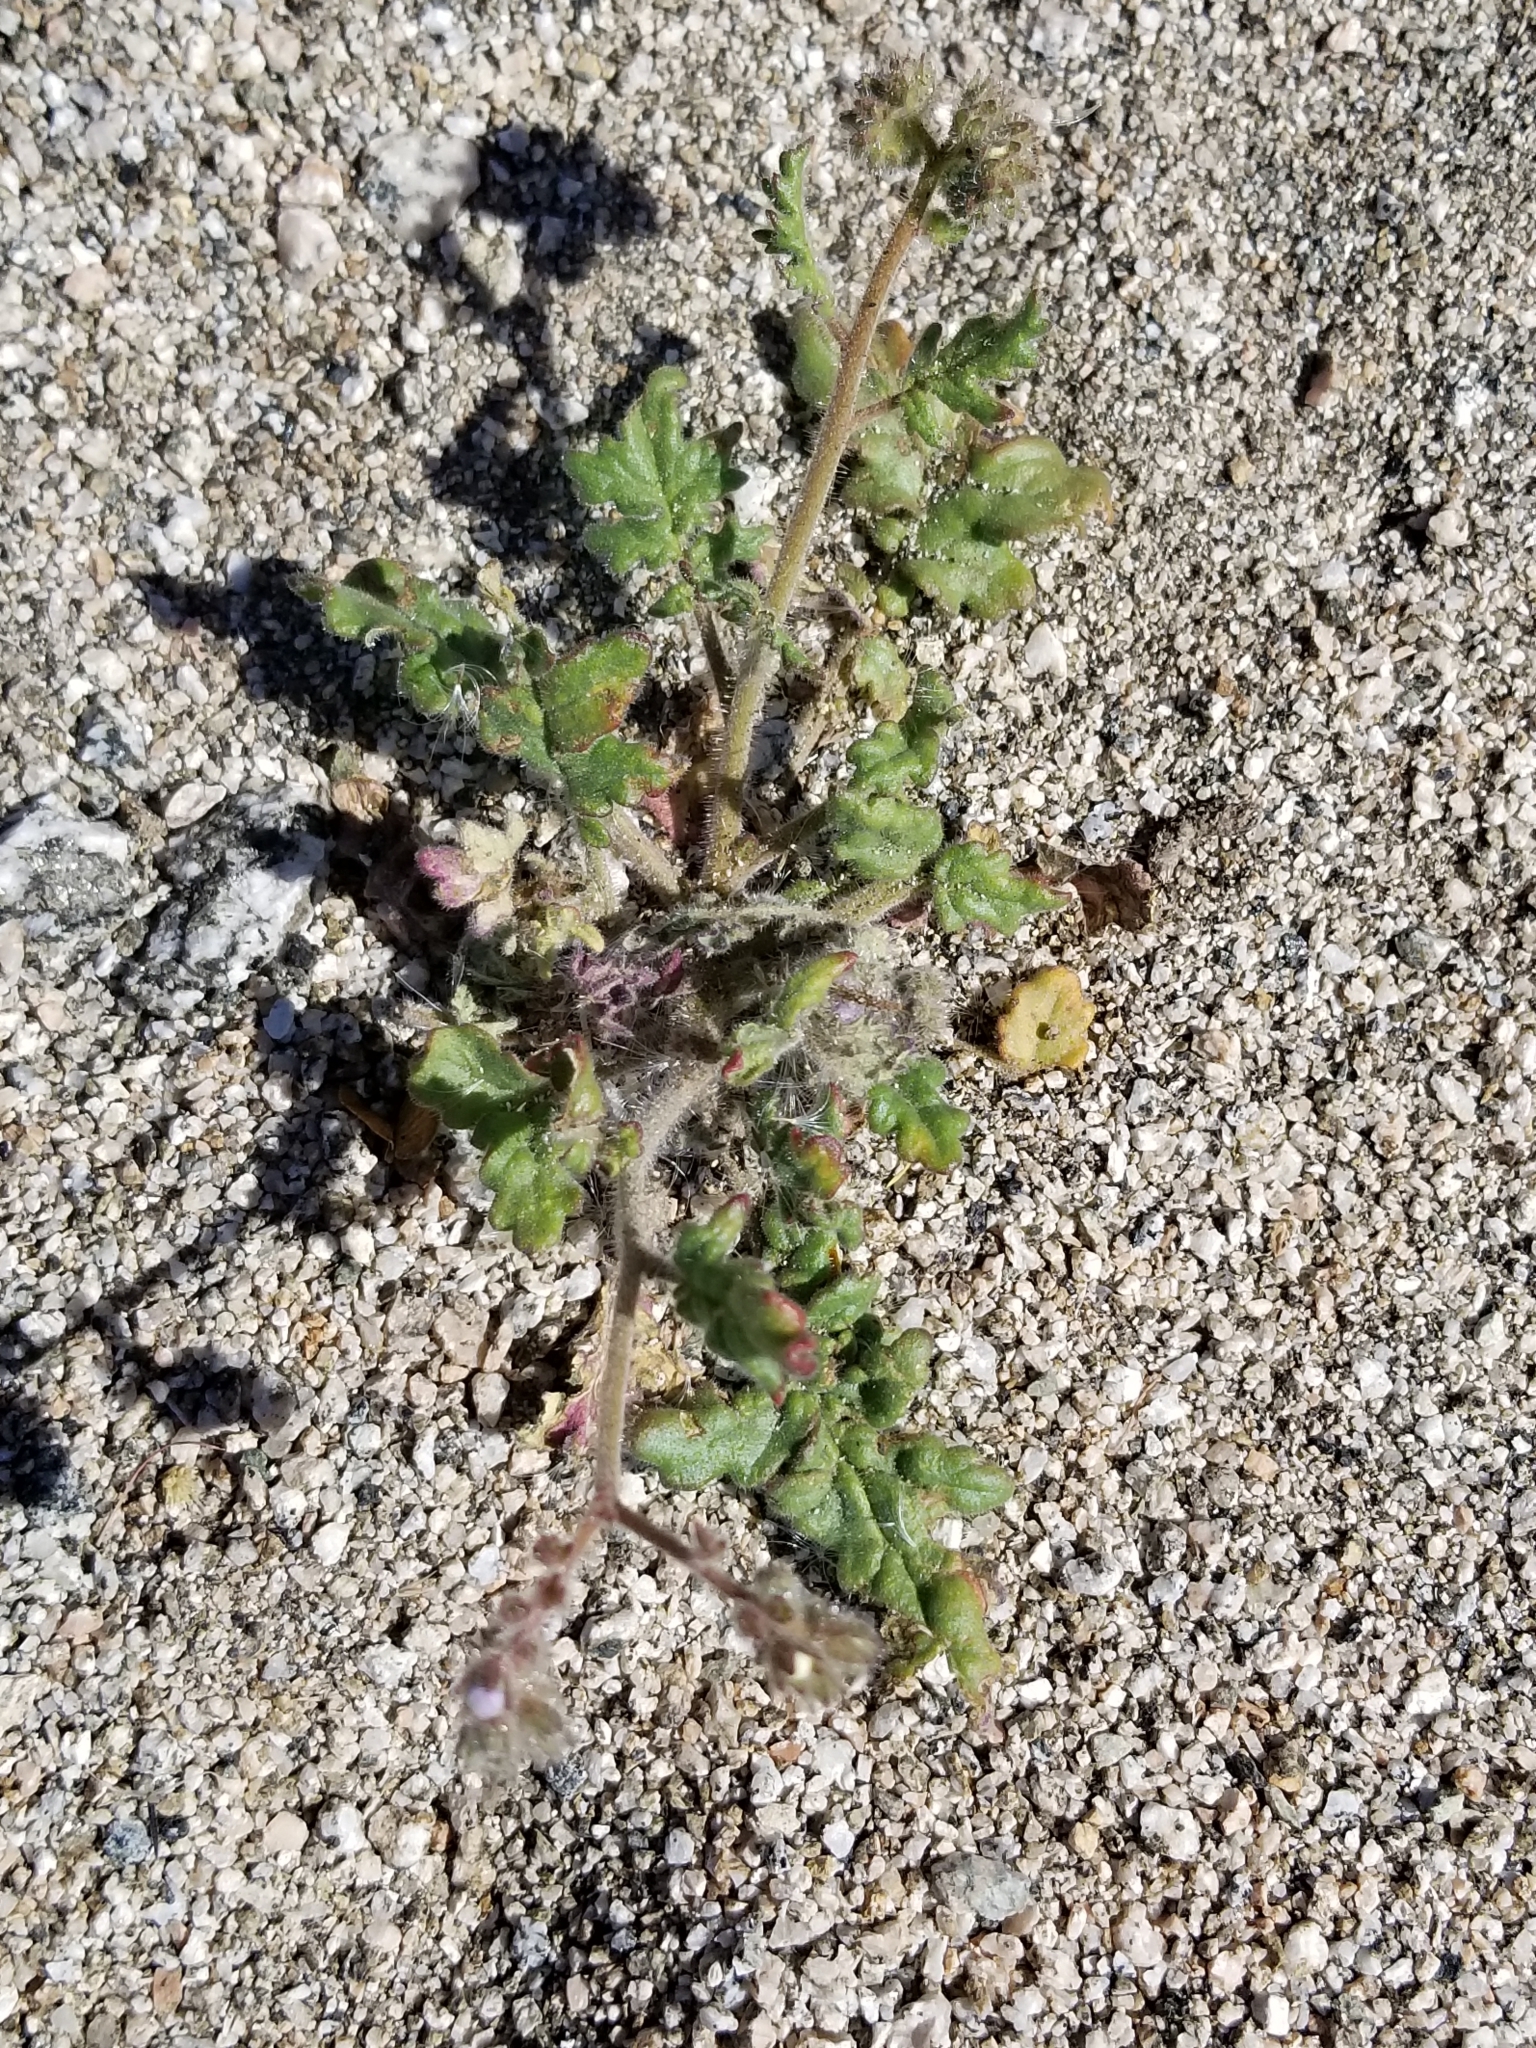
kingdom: Plantae
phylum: Tracheophyta
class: Magnoliopsida
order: Boraginales
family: Hydrophyllaceae
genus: Phacelia
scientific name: Phacelia crenulata
